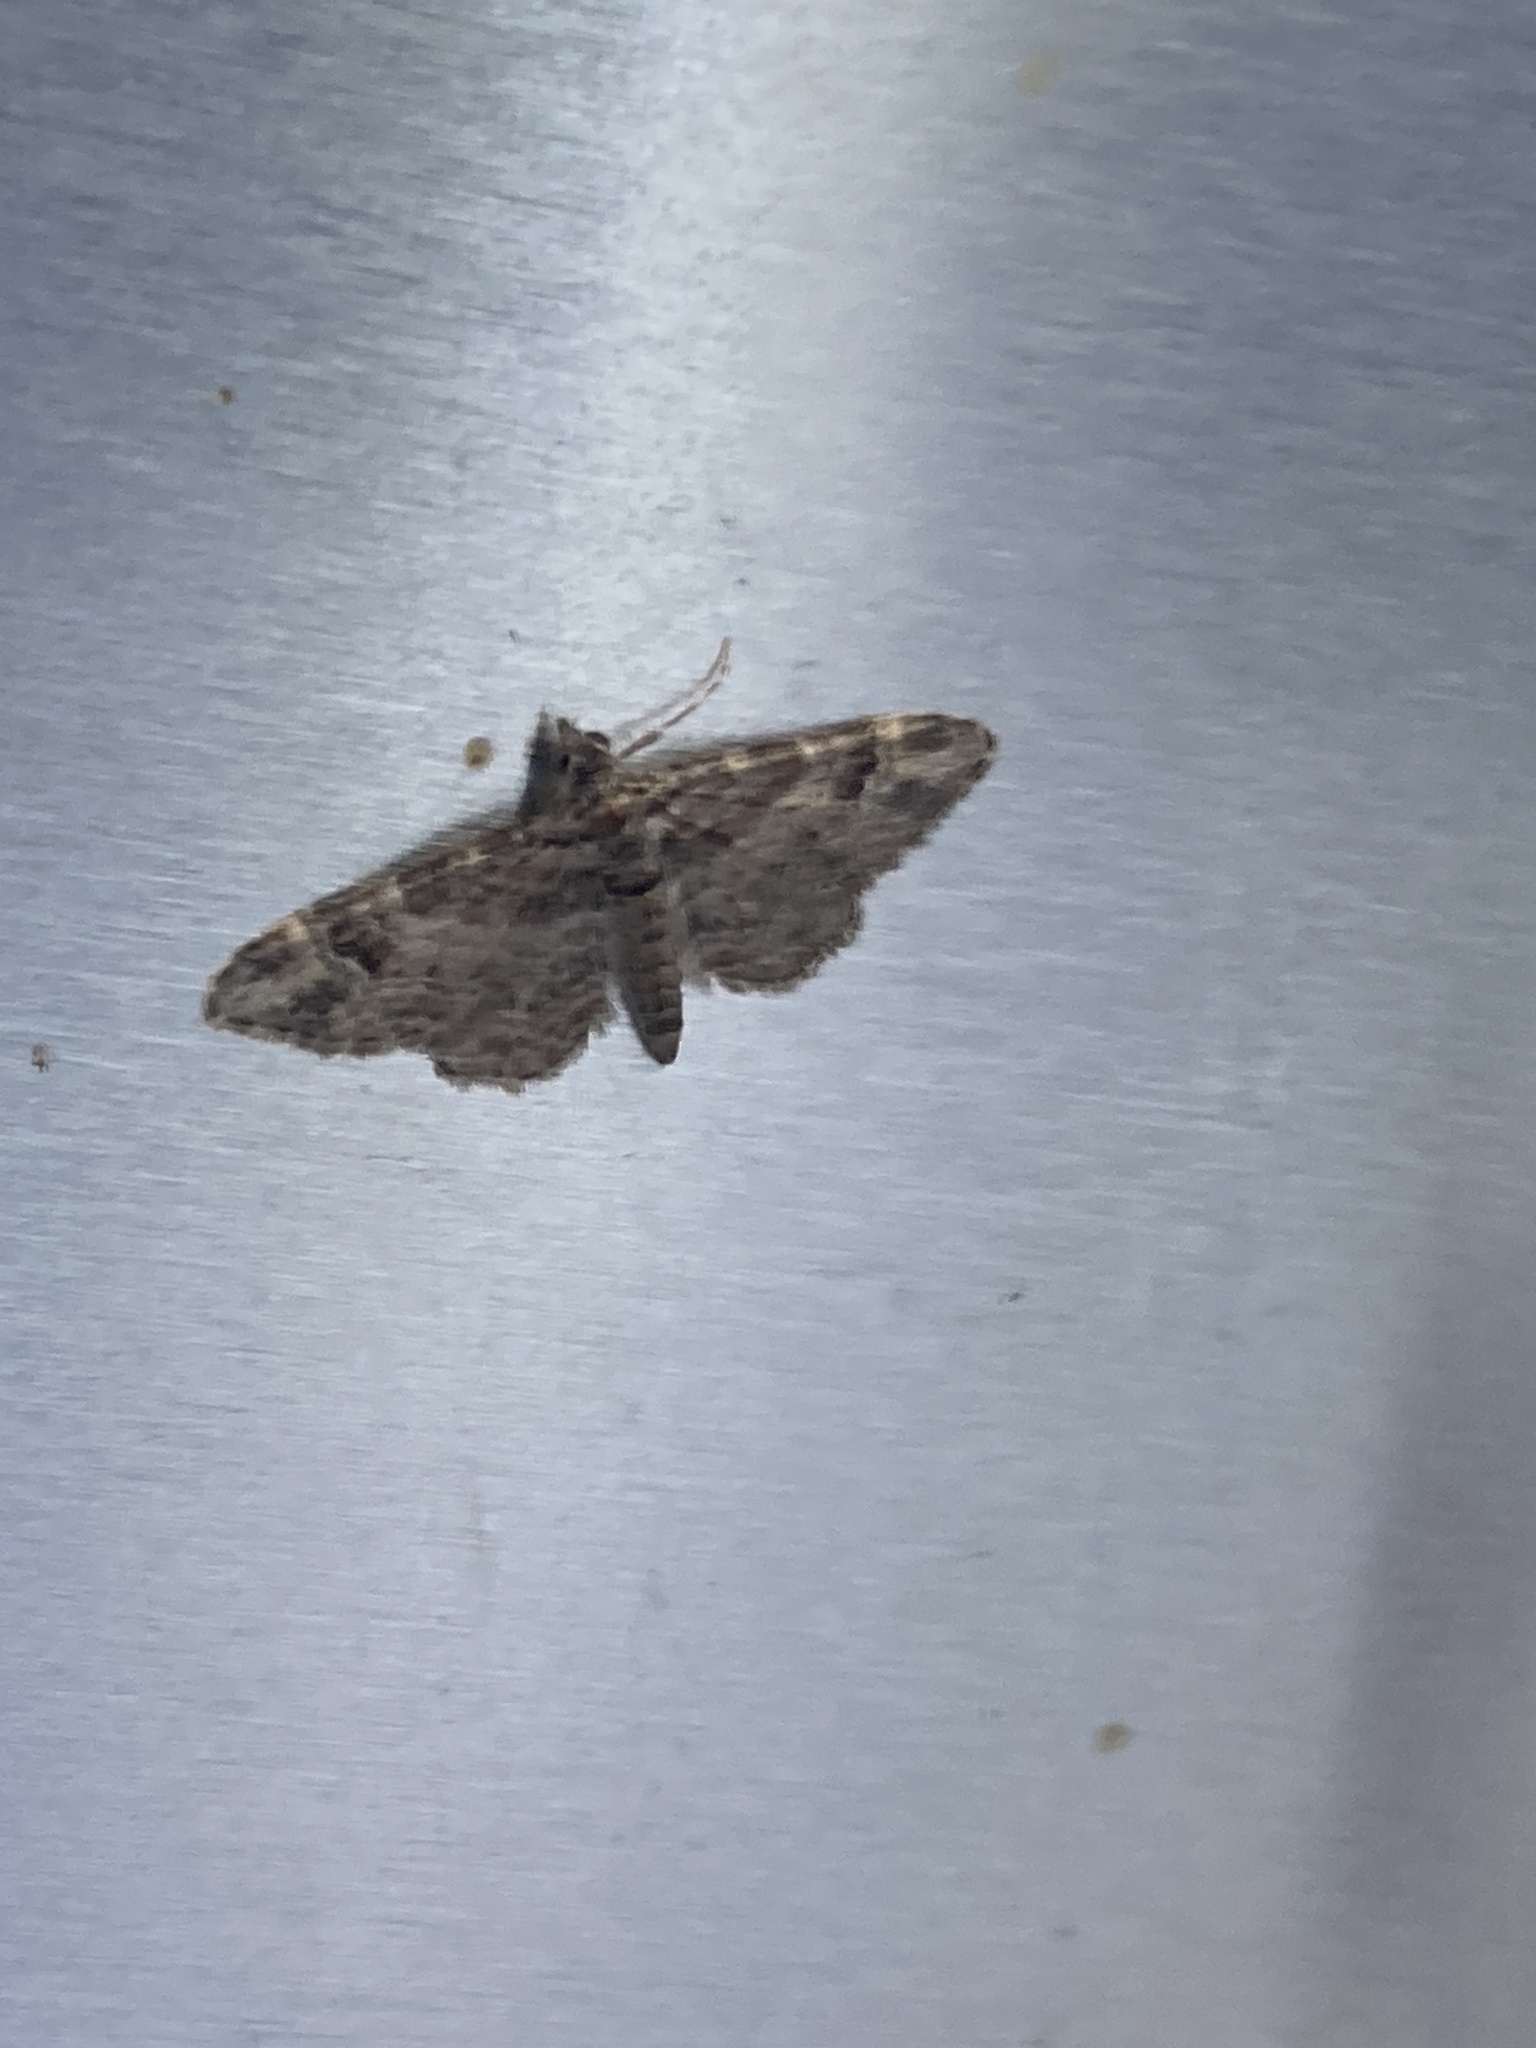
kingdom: Animalia
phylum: Arthropoda
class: Insecta
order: Lepidoptera
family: Geometridae
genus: Gymnoscelis
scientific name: Gymnoscelis rufifasciata
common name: Double-striped pug
